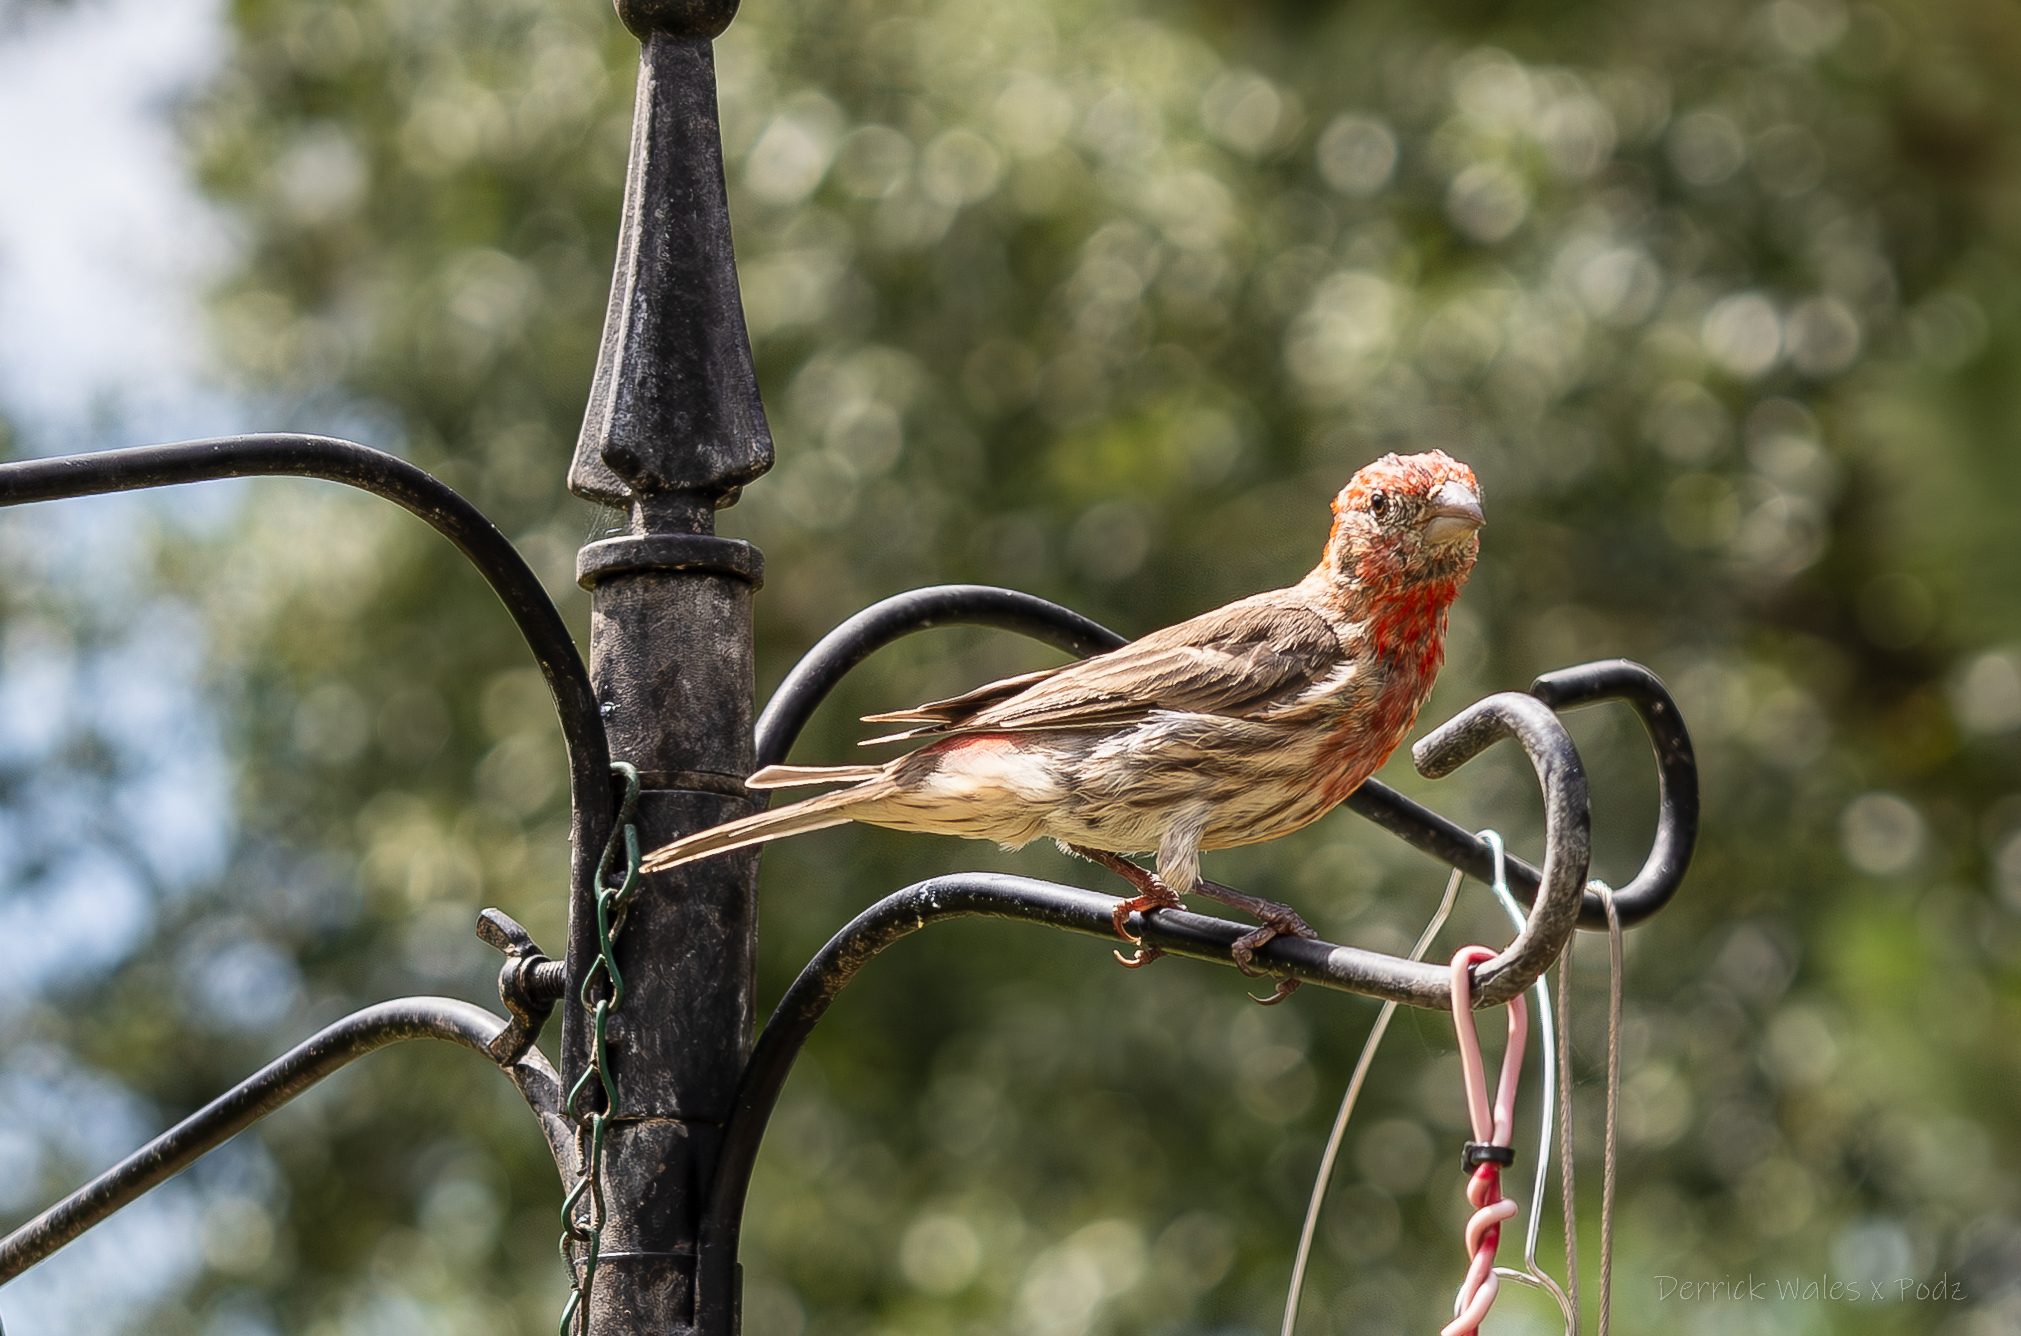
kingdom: Animalia
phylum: Chordata
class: Aves
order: Passeriformes
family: Fringillidae
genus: Haemorhous
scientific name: Haemorhous mexicanus
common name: House finch
